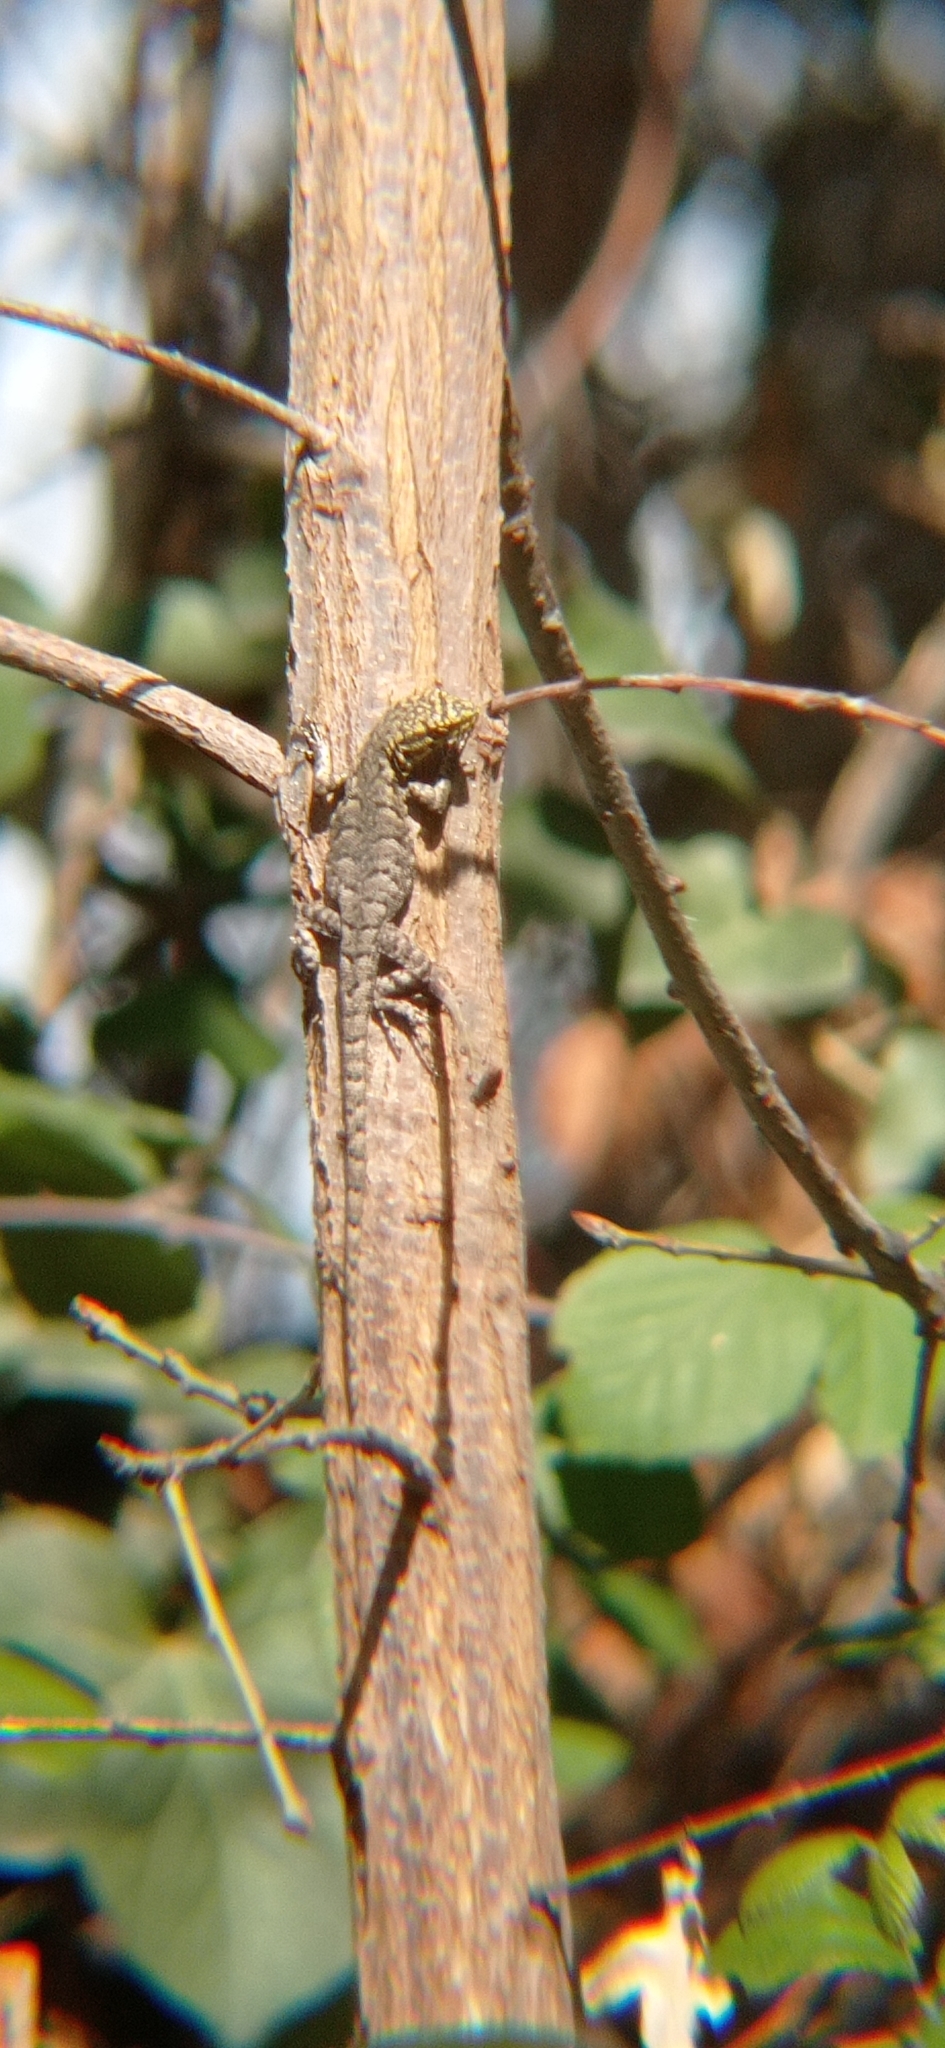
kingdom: Animalia
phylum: Chordata
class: Squamata
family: Liolaemidae
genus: Liolaemus
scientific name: Liolaemus tenuis
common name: Thin tree iguana
